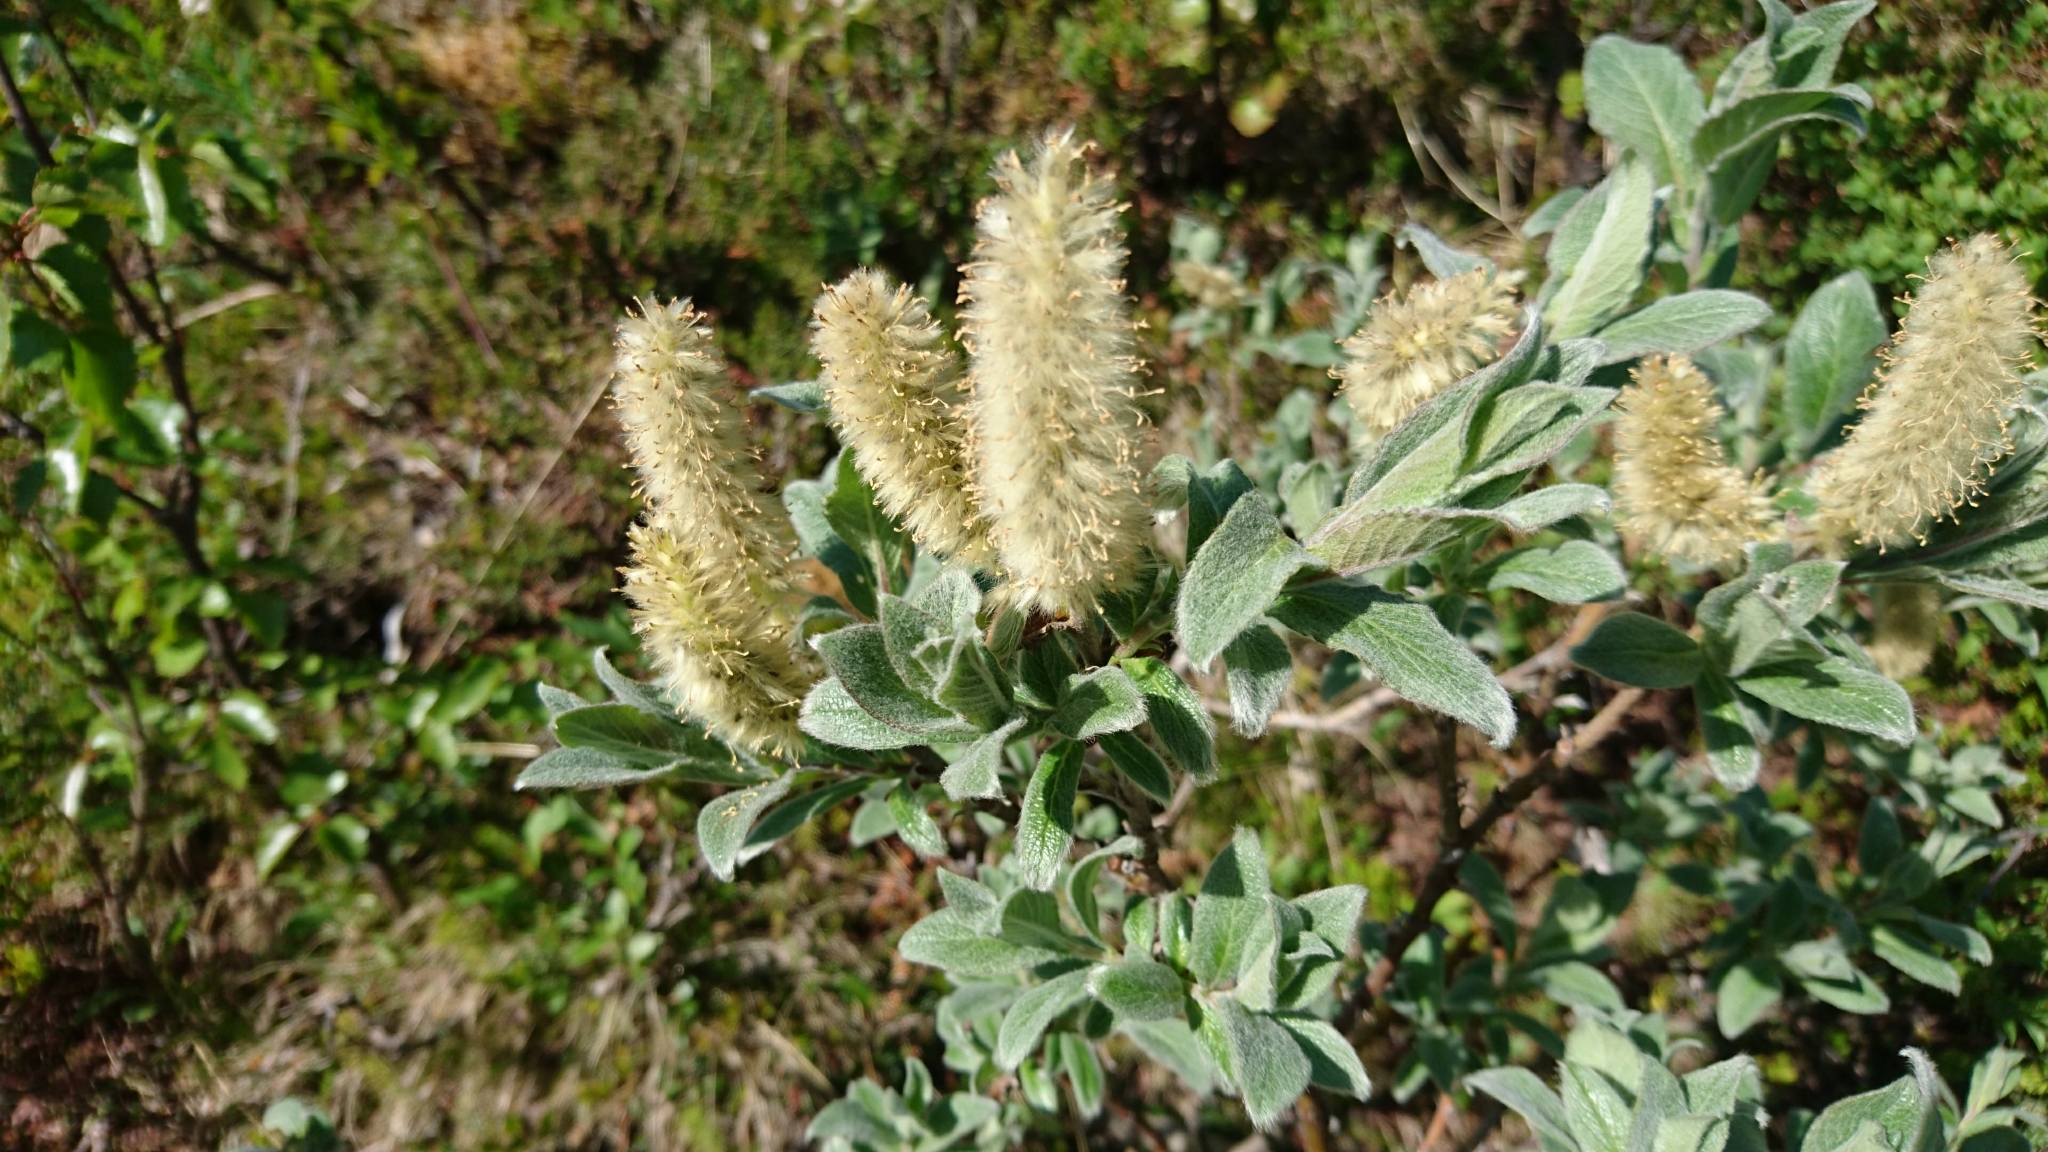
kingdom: Plantae
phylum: Tracheophyta
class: Magnoliopsida
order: Malpighiales
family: Salicaceae
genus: Salix
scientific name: Salix lanata
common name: Woolly willow
